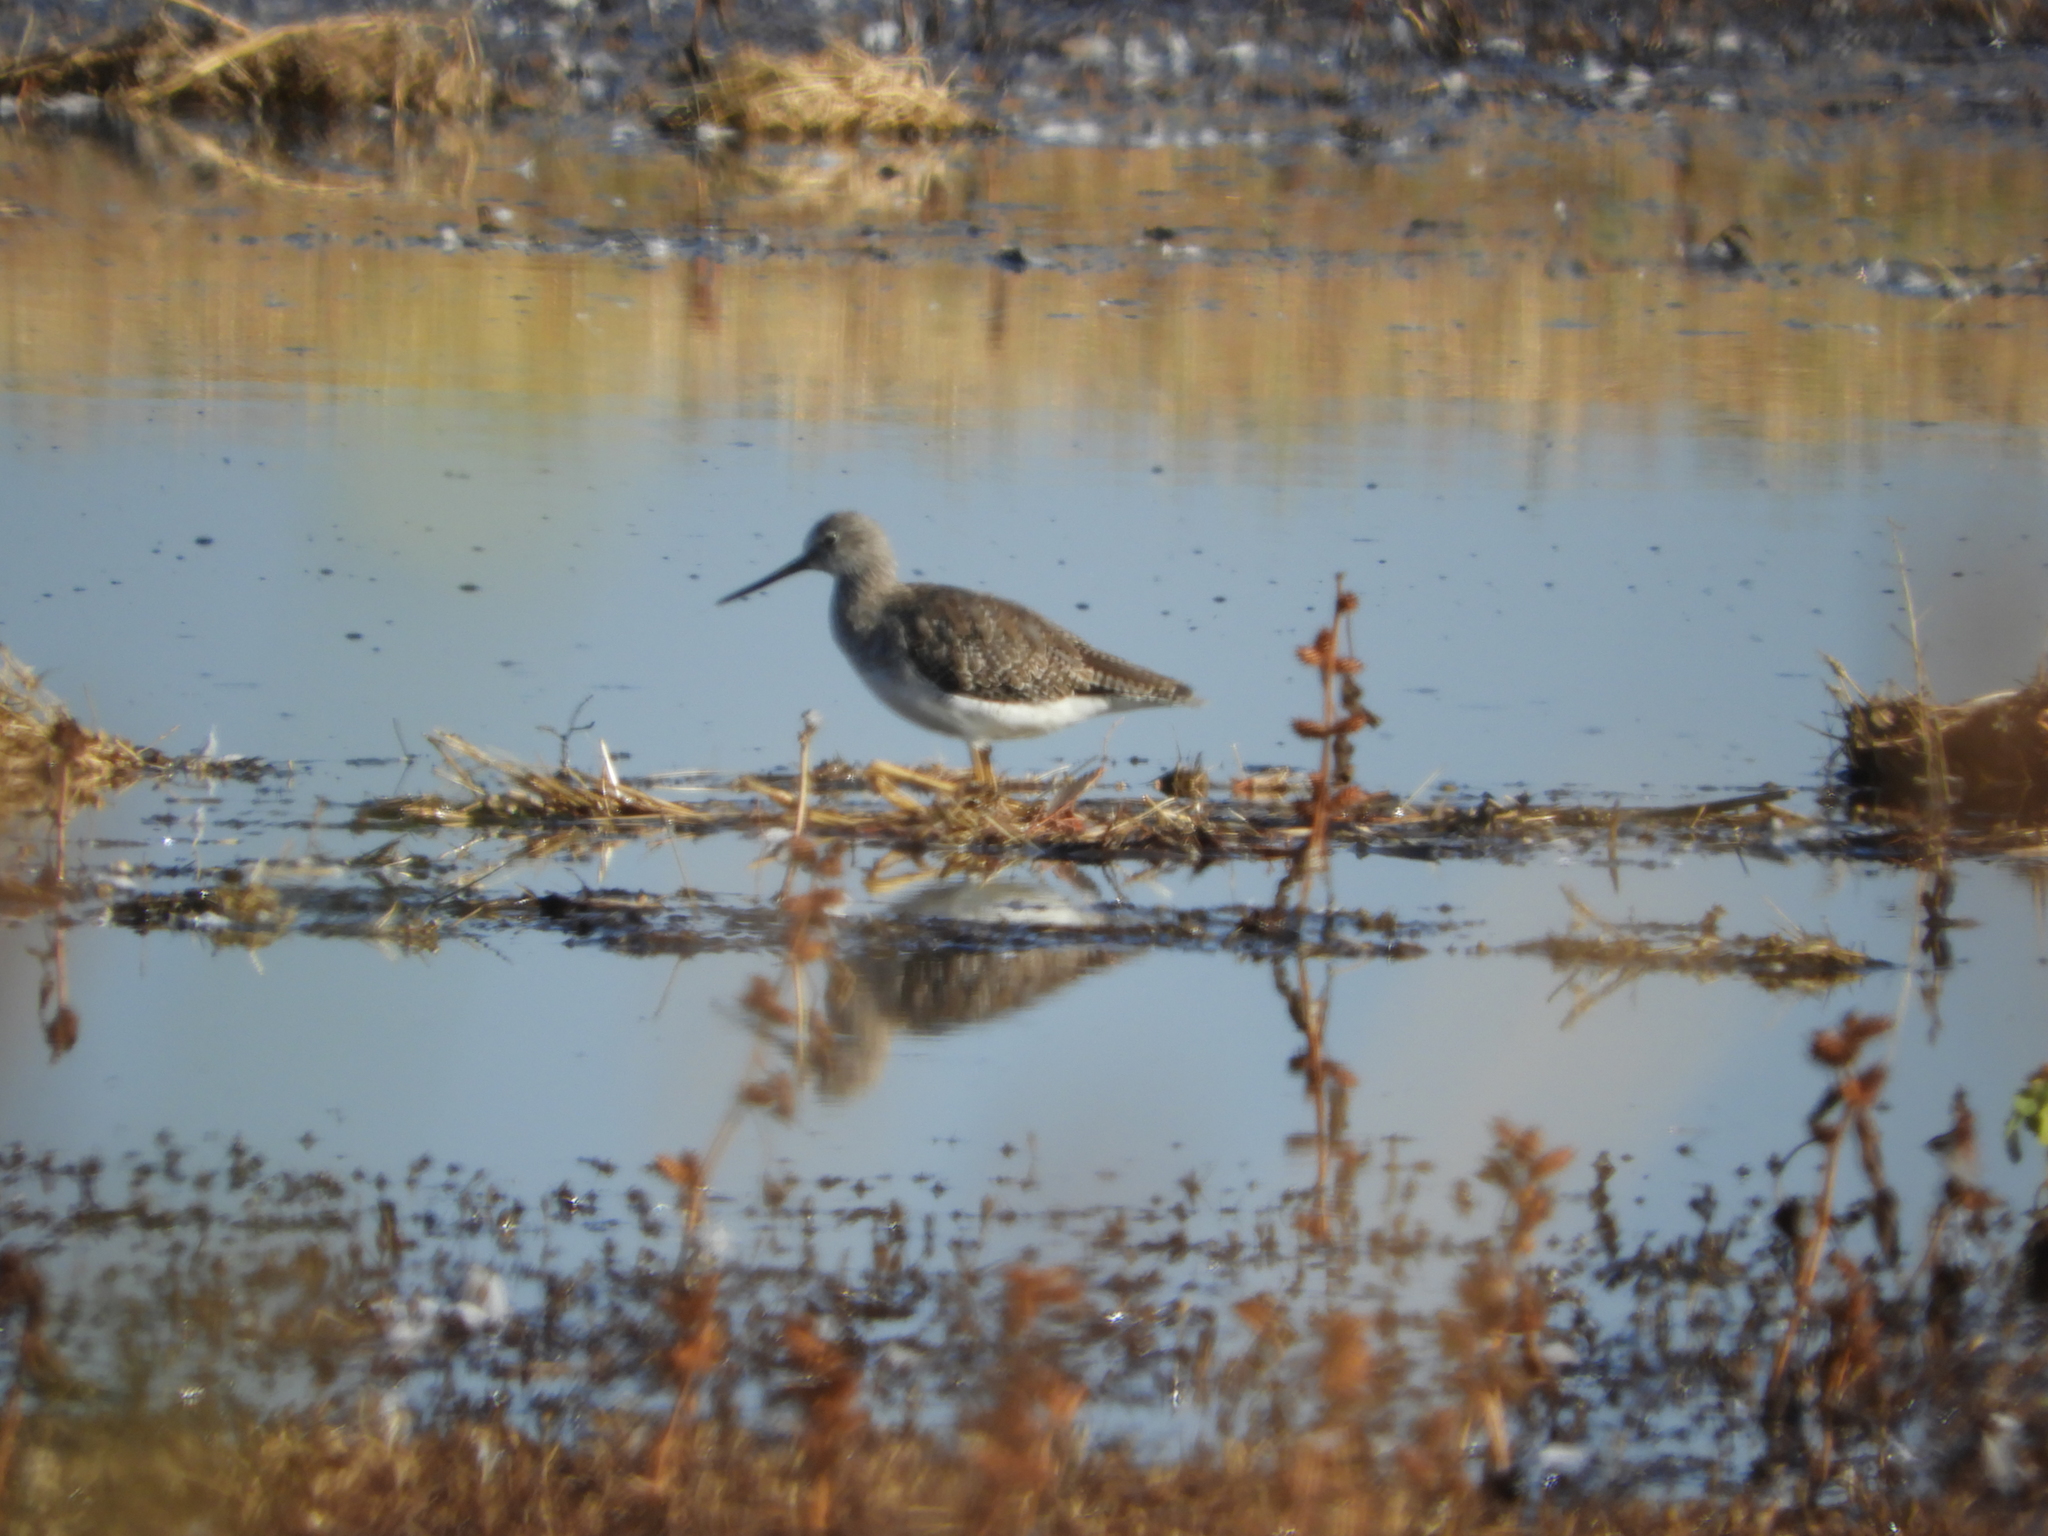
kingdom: Animalia
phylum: Chordata
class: Aves
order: Charadriiformes
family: Scolopacidae
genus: Tringa
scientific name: Tringa melanoleuca
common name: Greater yellowlegs
